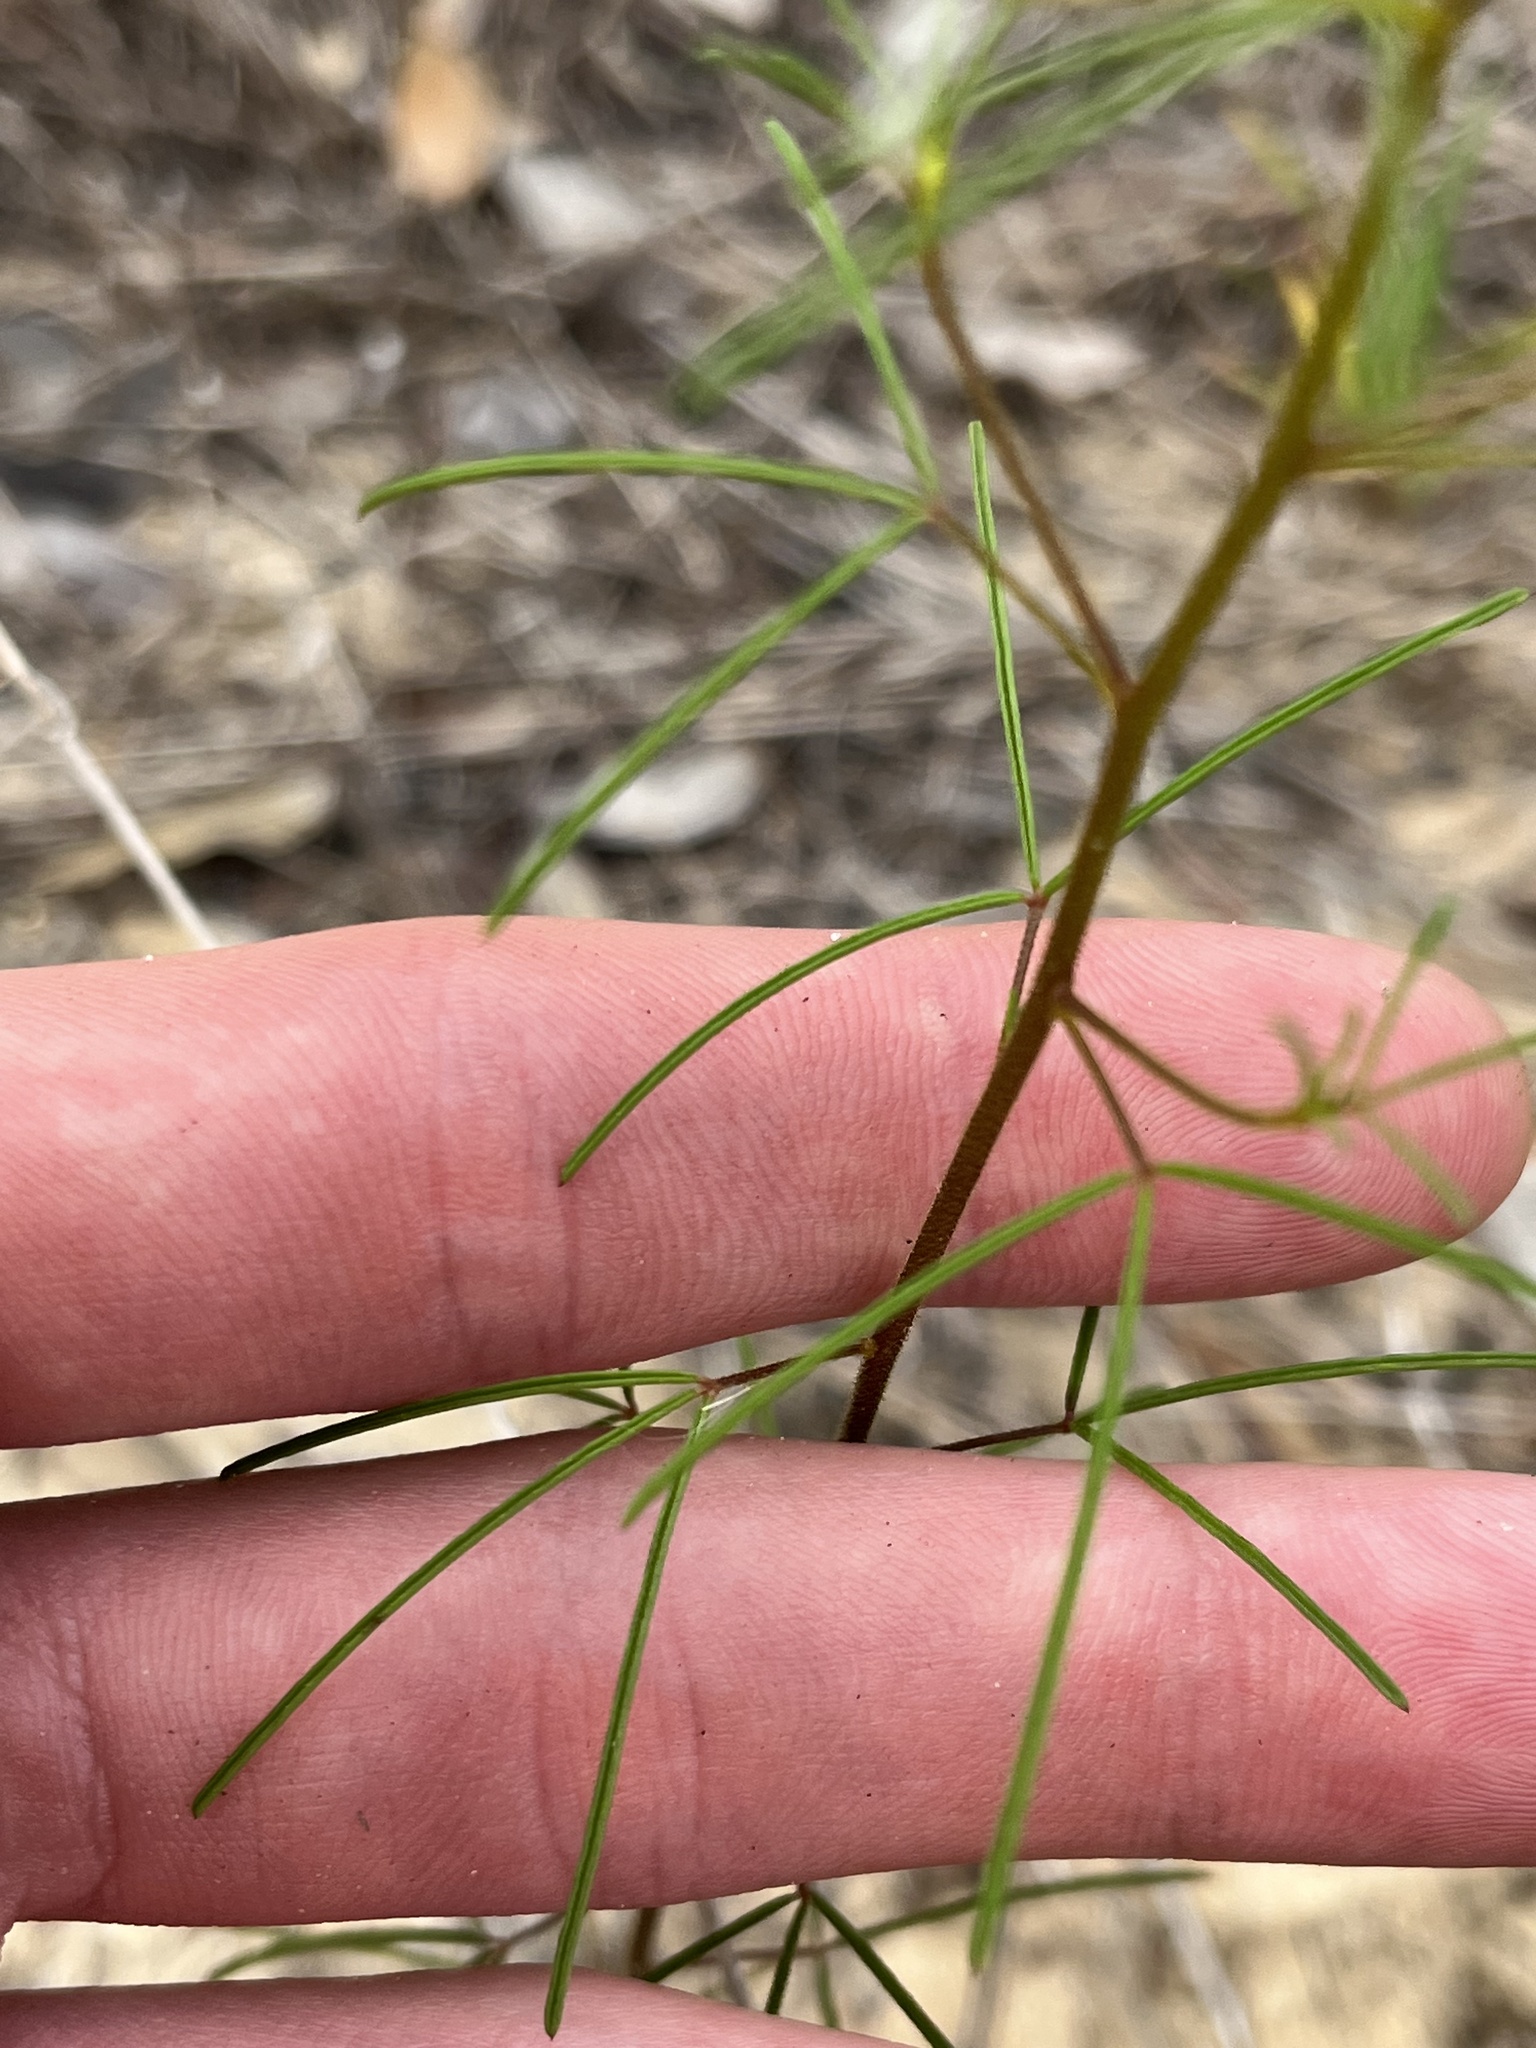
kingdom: Plantae
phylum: Tracheophyta
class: Magnoliopsida
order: Brassicales
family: Cleomaceae
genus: Polanisia
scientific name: Polanisia tenuifolia
